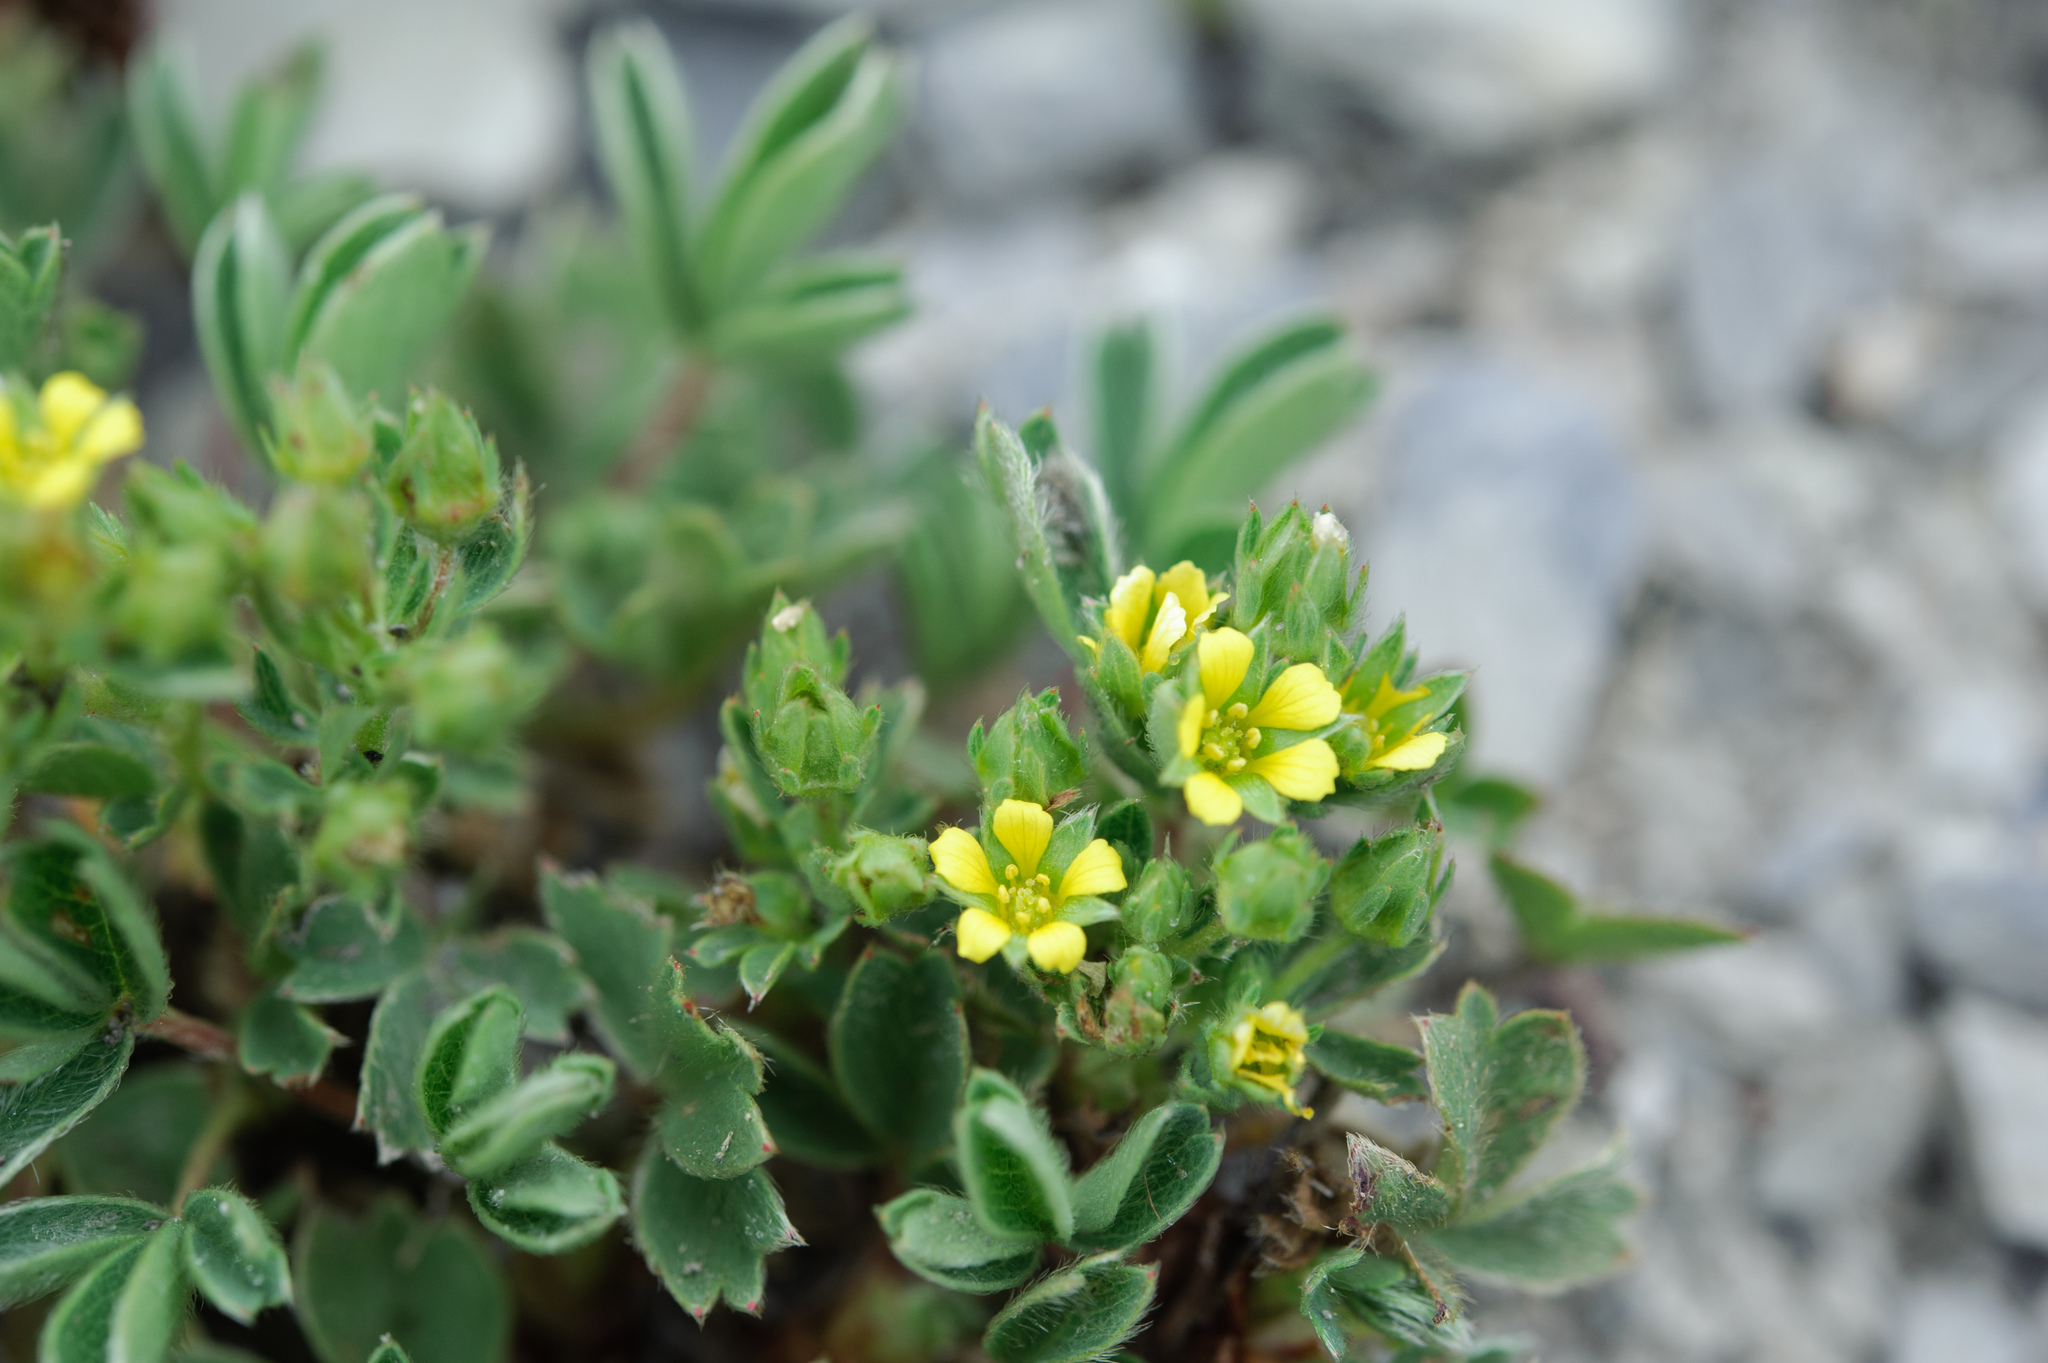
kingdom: Plantae
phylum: Tracheophyta
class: Magnoliopsida
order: Rosales
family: Rosaceae
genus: Sibbaldia
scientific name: Sibbaldia procumbens
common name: Creeping sibbaldia
